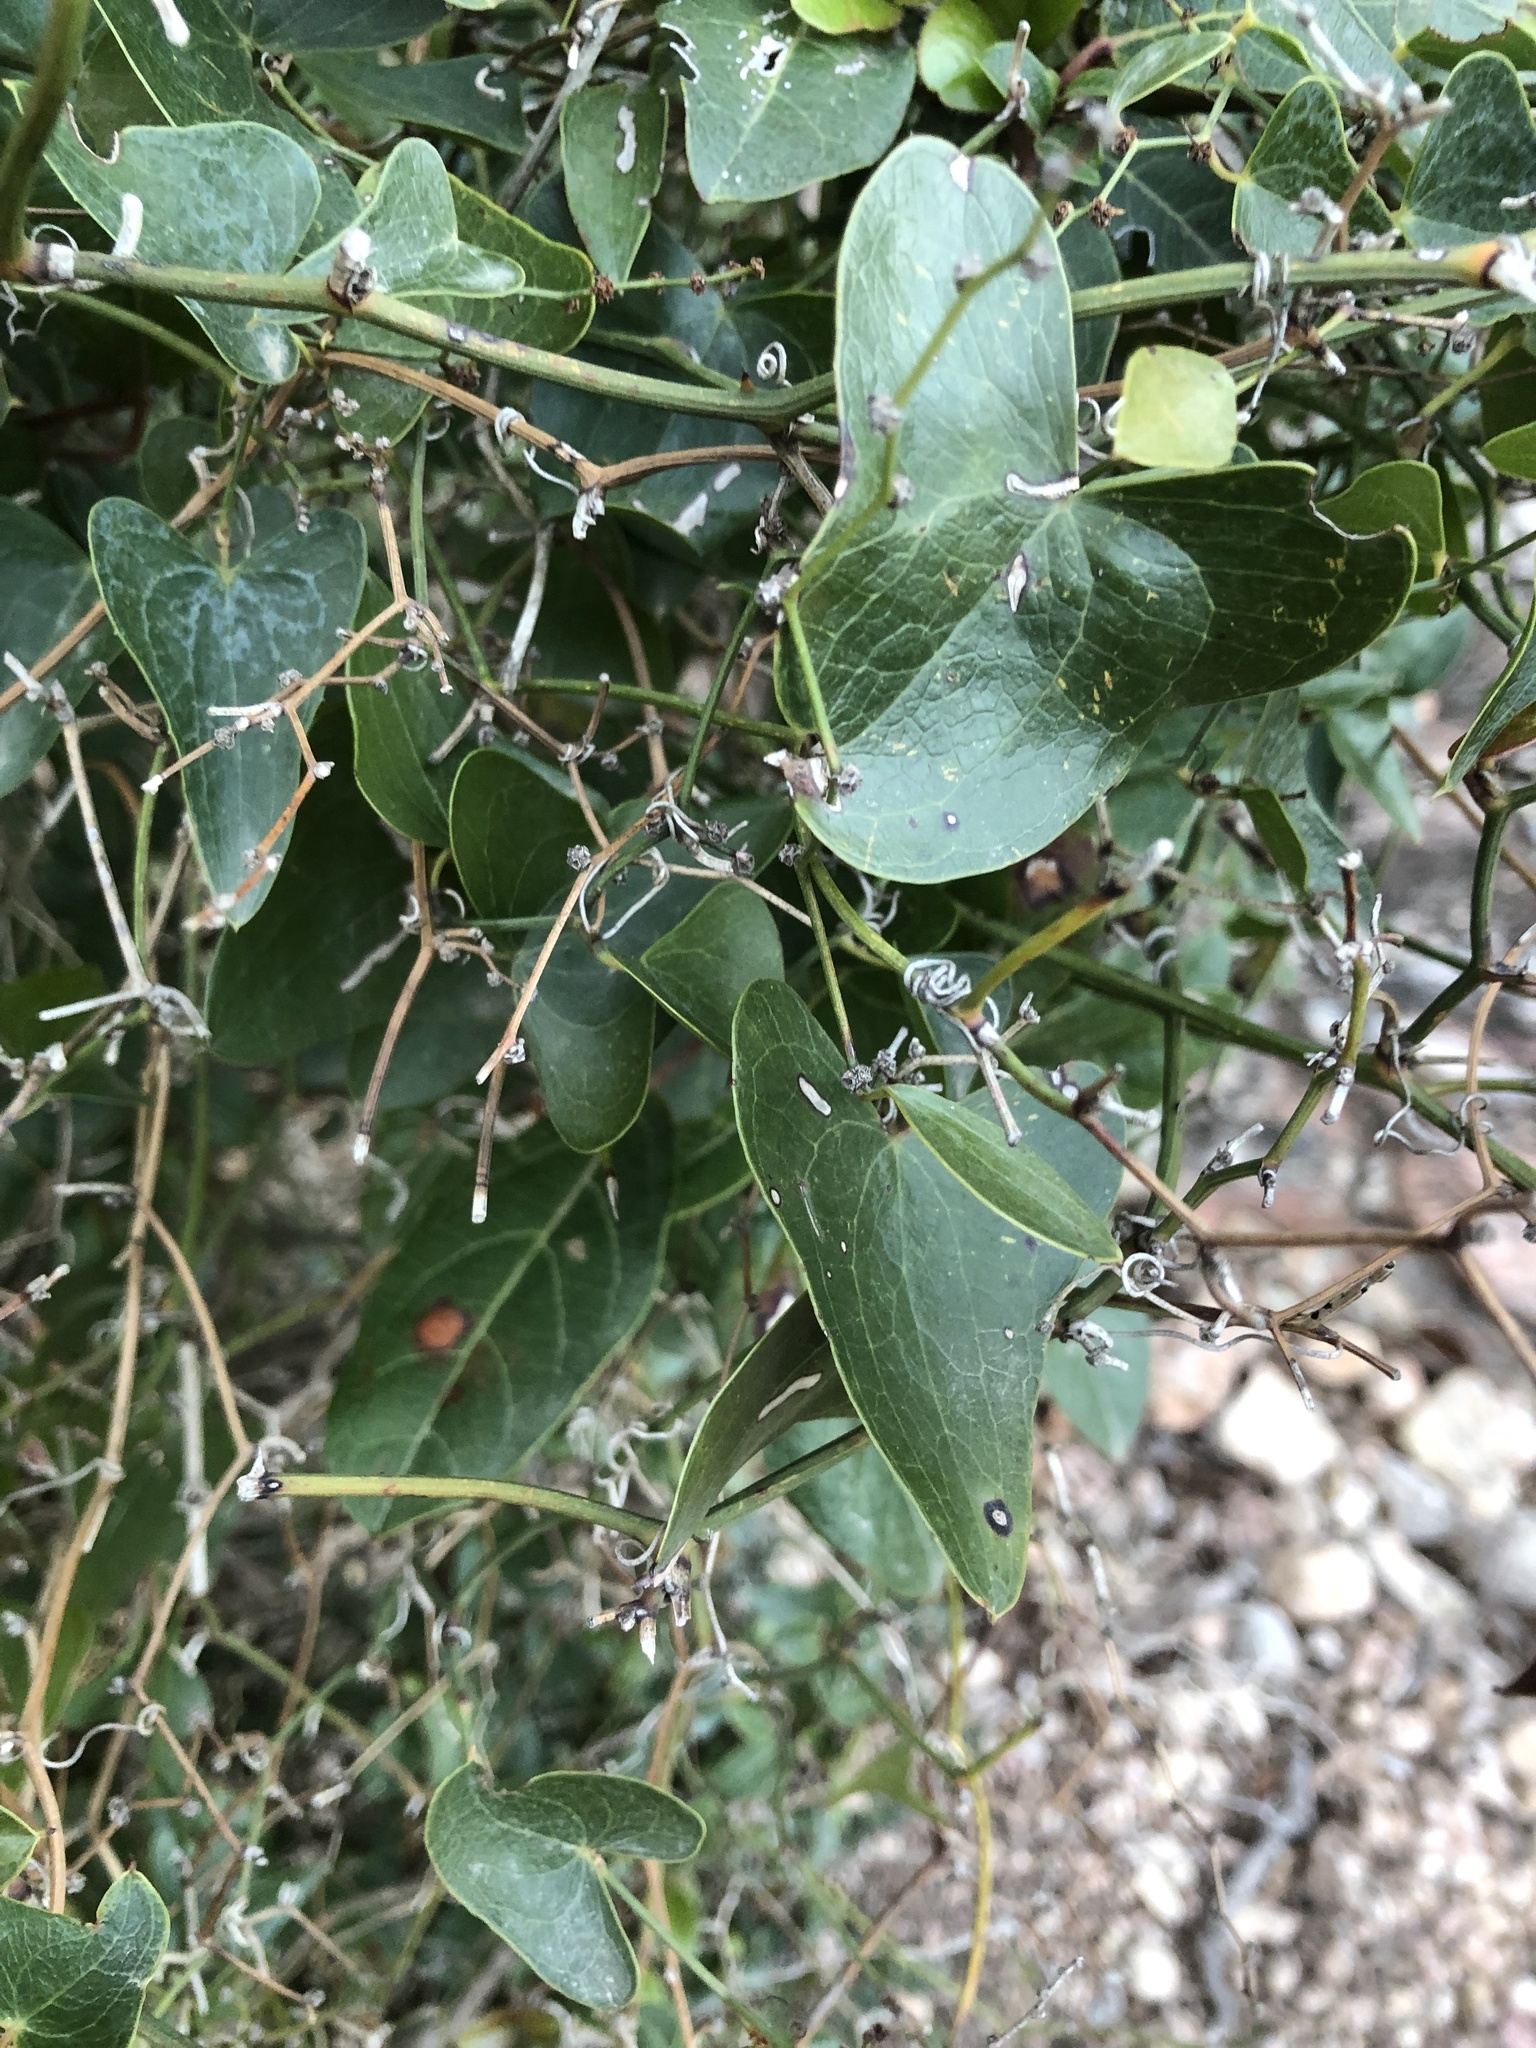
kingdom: Plantae
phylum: Tracheophyta
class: Liliopsida
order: Liliales
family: Smilacaceae
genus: Smilax
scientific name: Smilax aspera
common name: Common smilax
